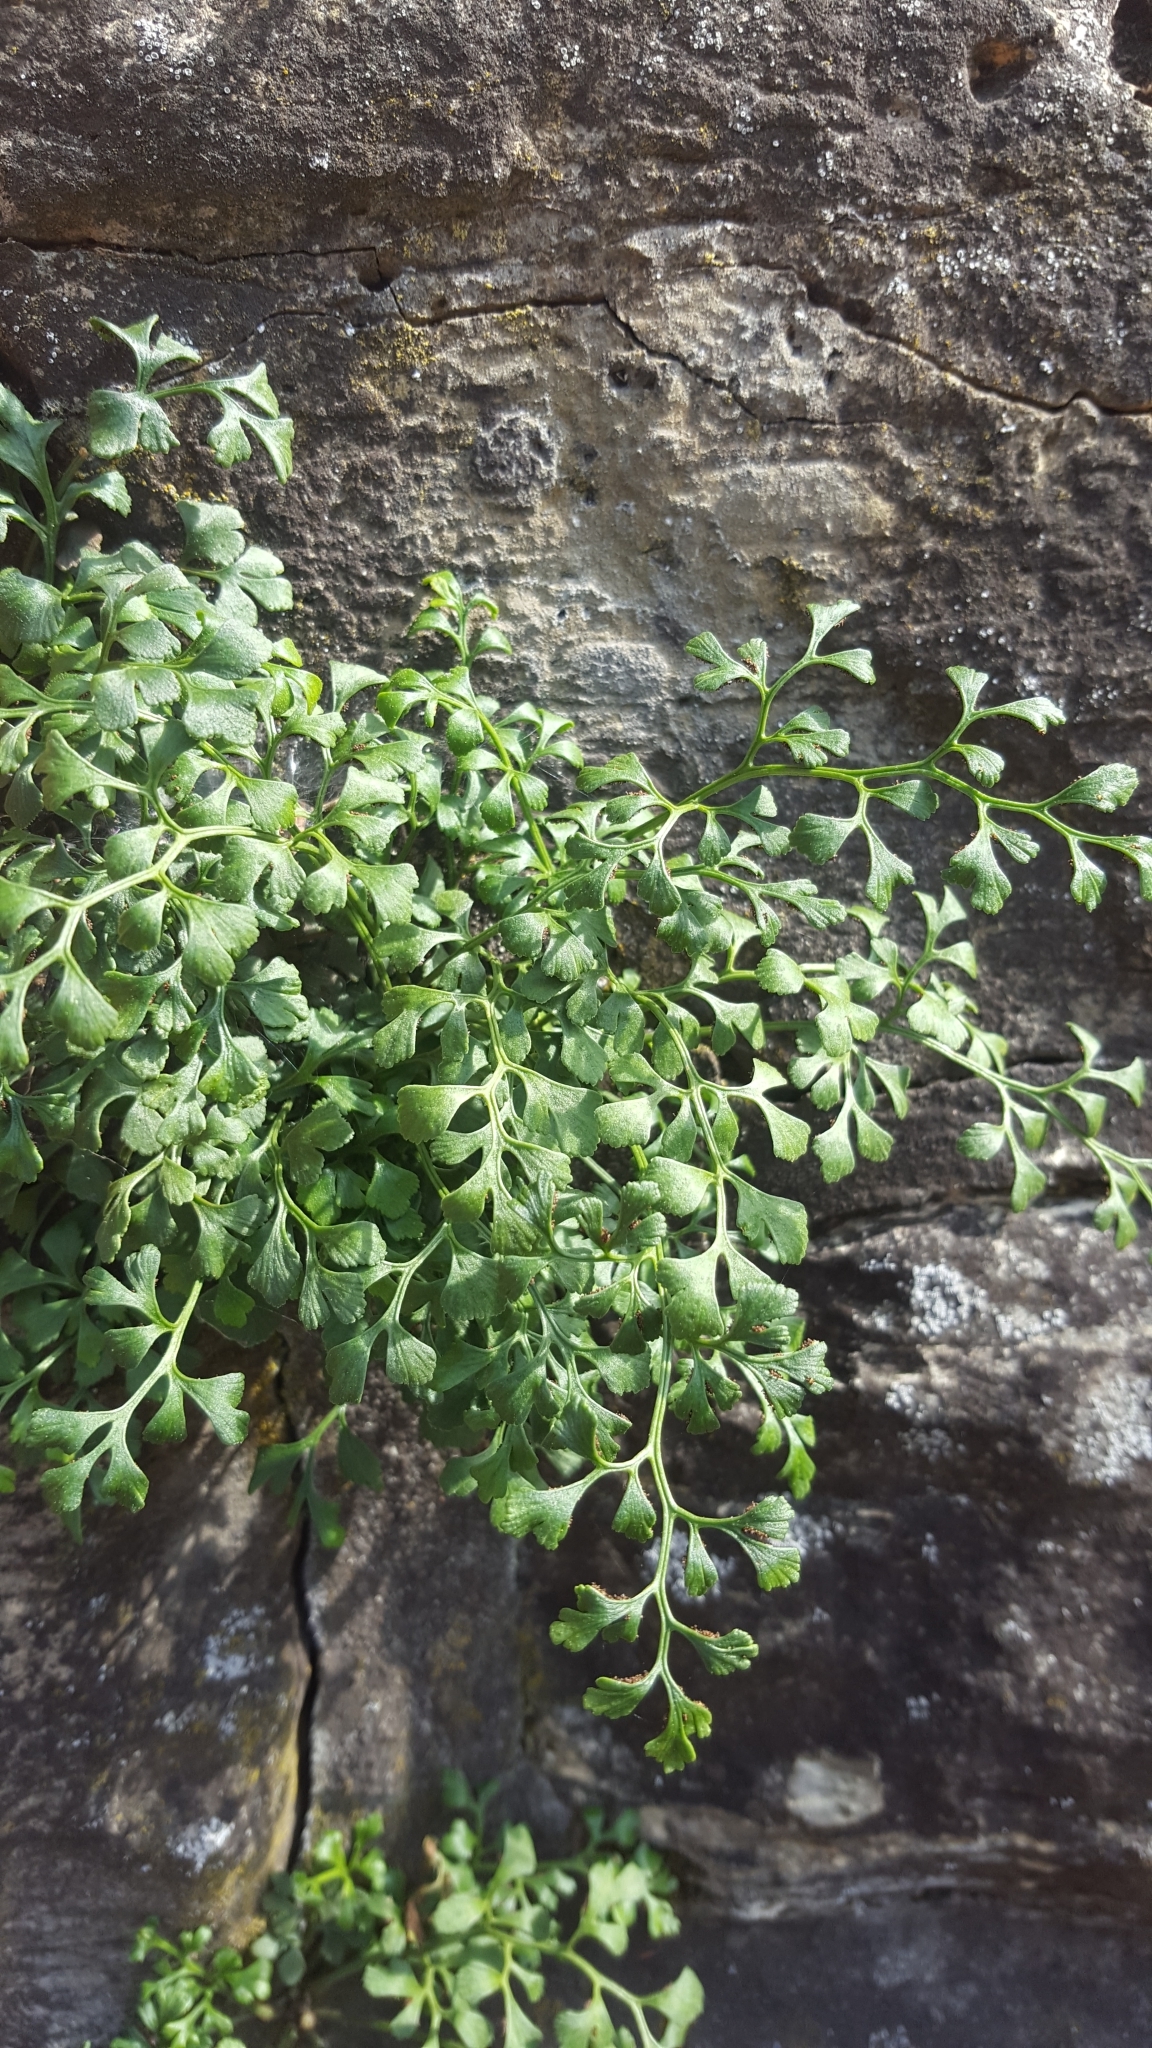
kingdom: Plantae
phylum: Tracheophyta
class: Polypodiopsida
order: Polypodiales
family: Aspleniaceae
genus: Asplenium
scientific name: Asplenium ruta-muraria
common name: Wall-rue
